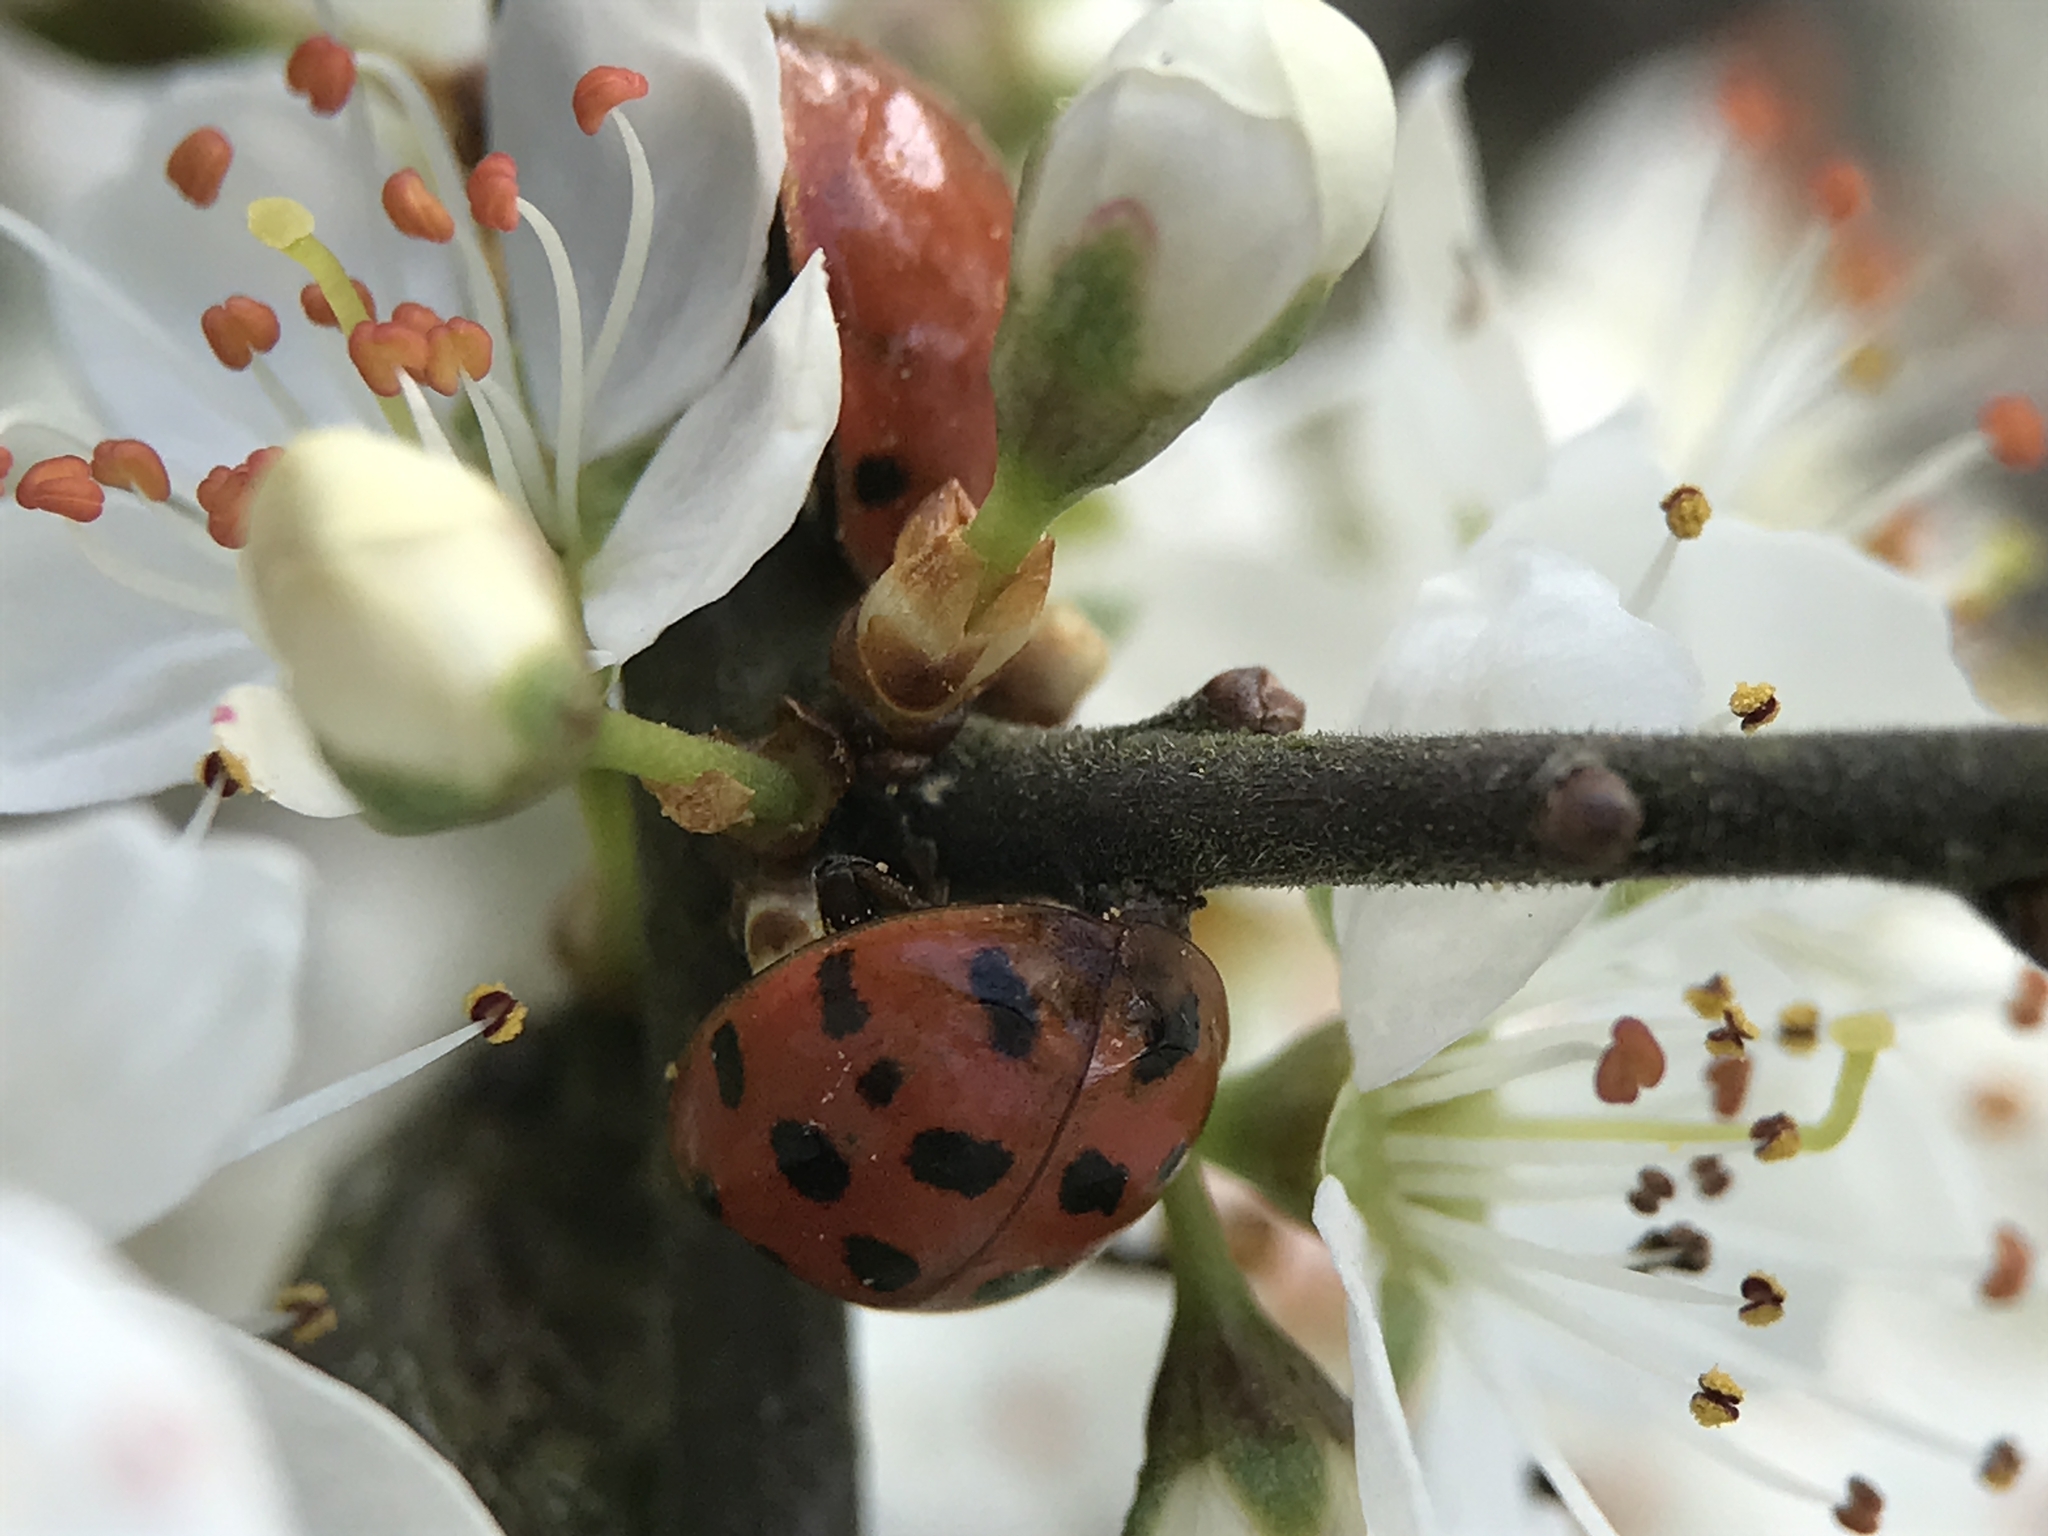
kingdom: Animalia
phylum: Arthropoda
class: Insecta
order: Coleoptera
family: Coccinellidae
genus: Harmonia
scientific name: Harmonia axyridis
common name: Harlequin ladybird
